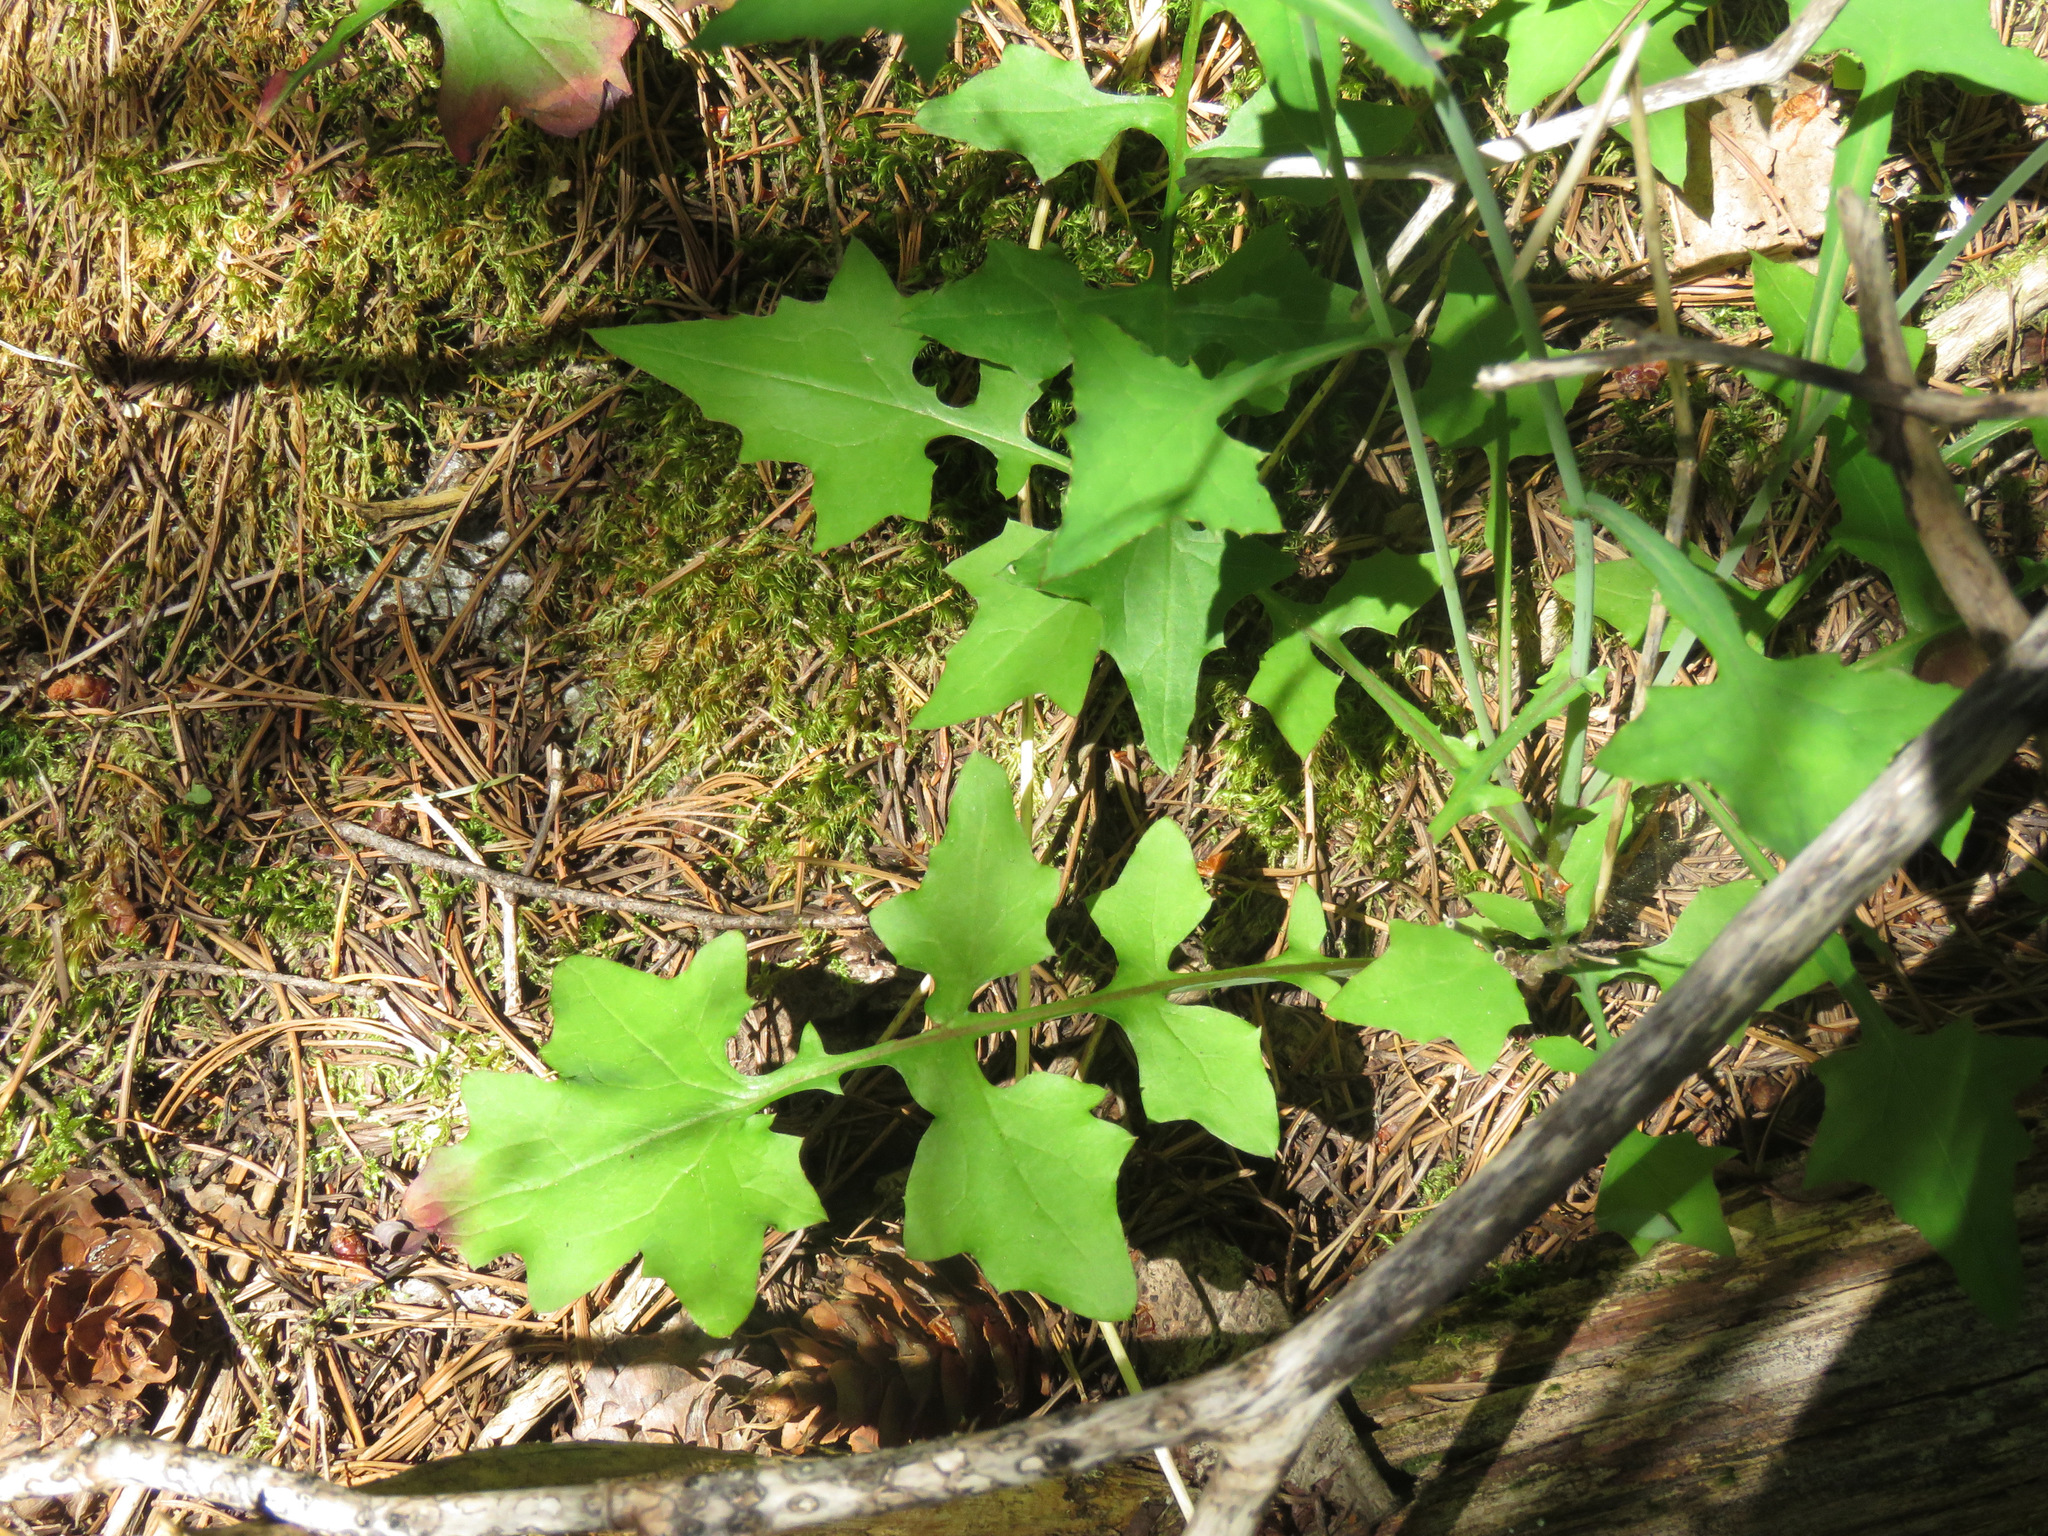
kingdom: Plantae
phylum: Tracheophyta
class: Magnoliopsida
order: Asterales
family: Asteraceae
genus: Mycelis
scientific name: Mycelis muralis
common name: Wall lettuce
